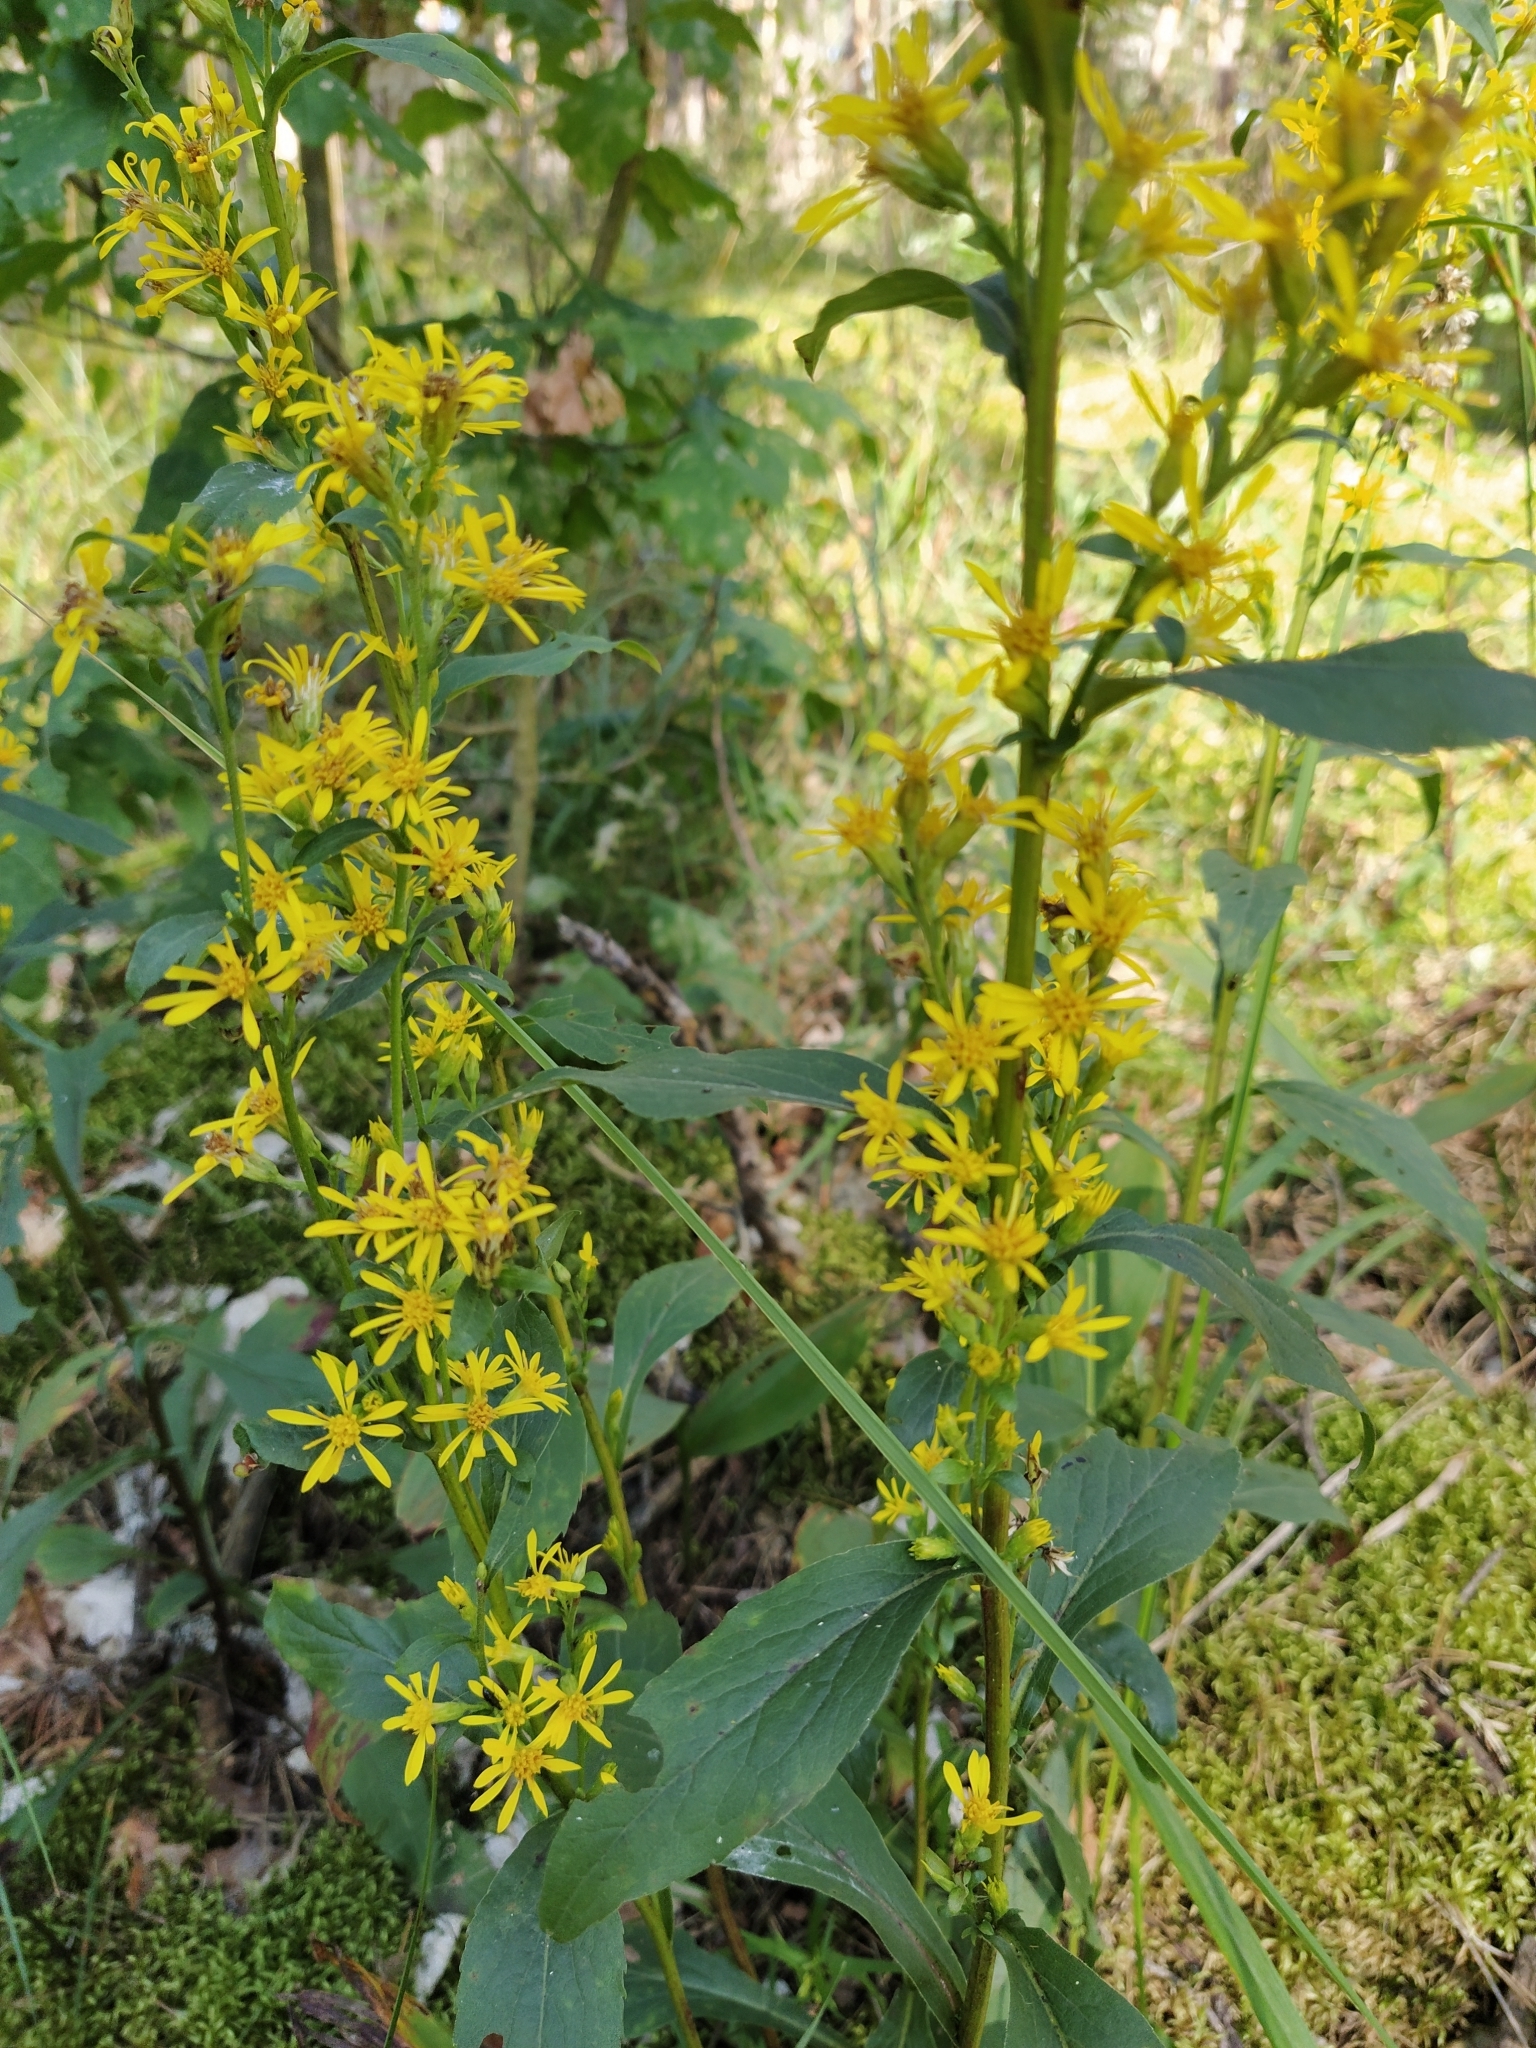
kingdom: Plantae
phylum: Tracheophyta
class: Magnoliopsida
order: Asterales
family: Asteraceae
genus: Solidago
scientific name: Solidago virgaurea
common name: Goldenrod
